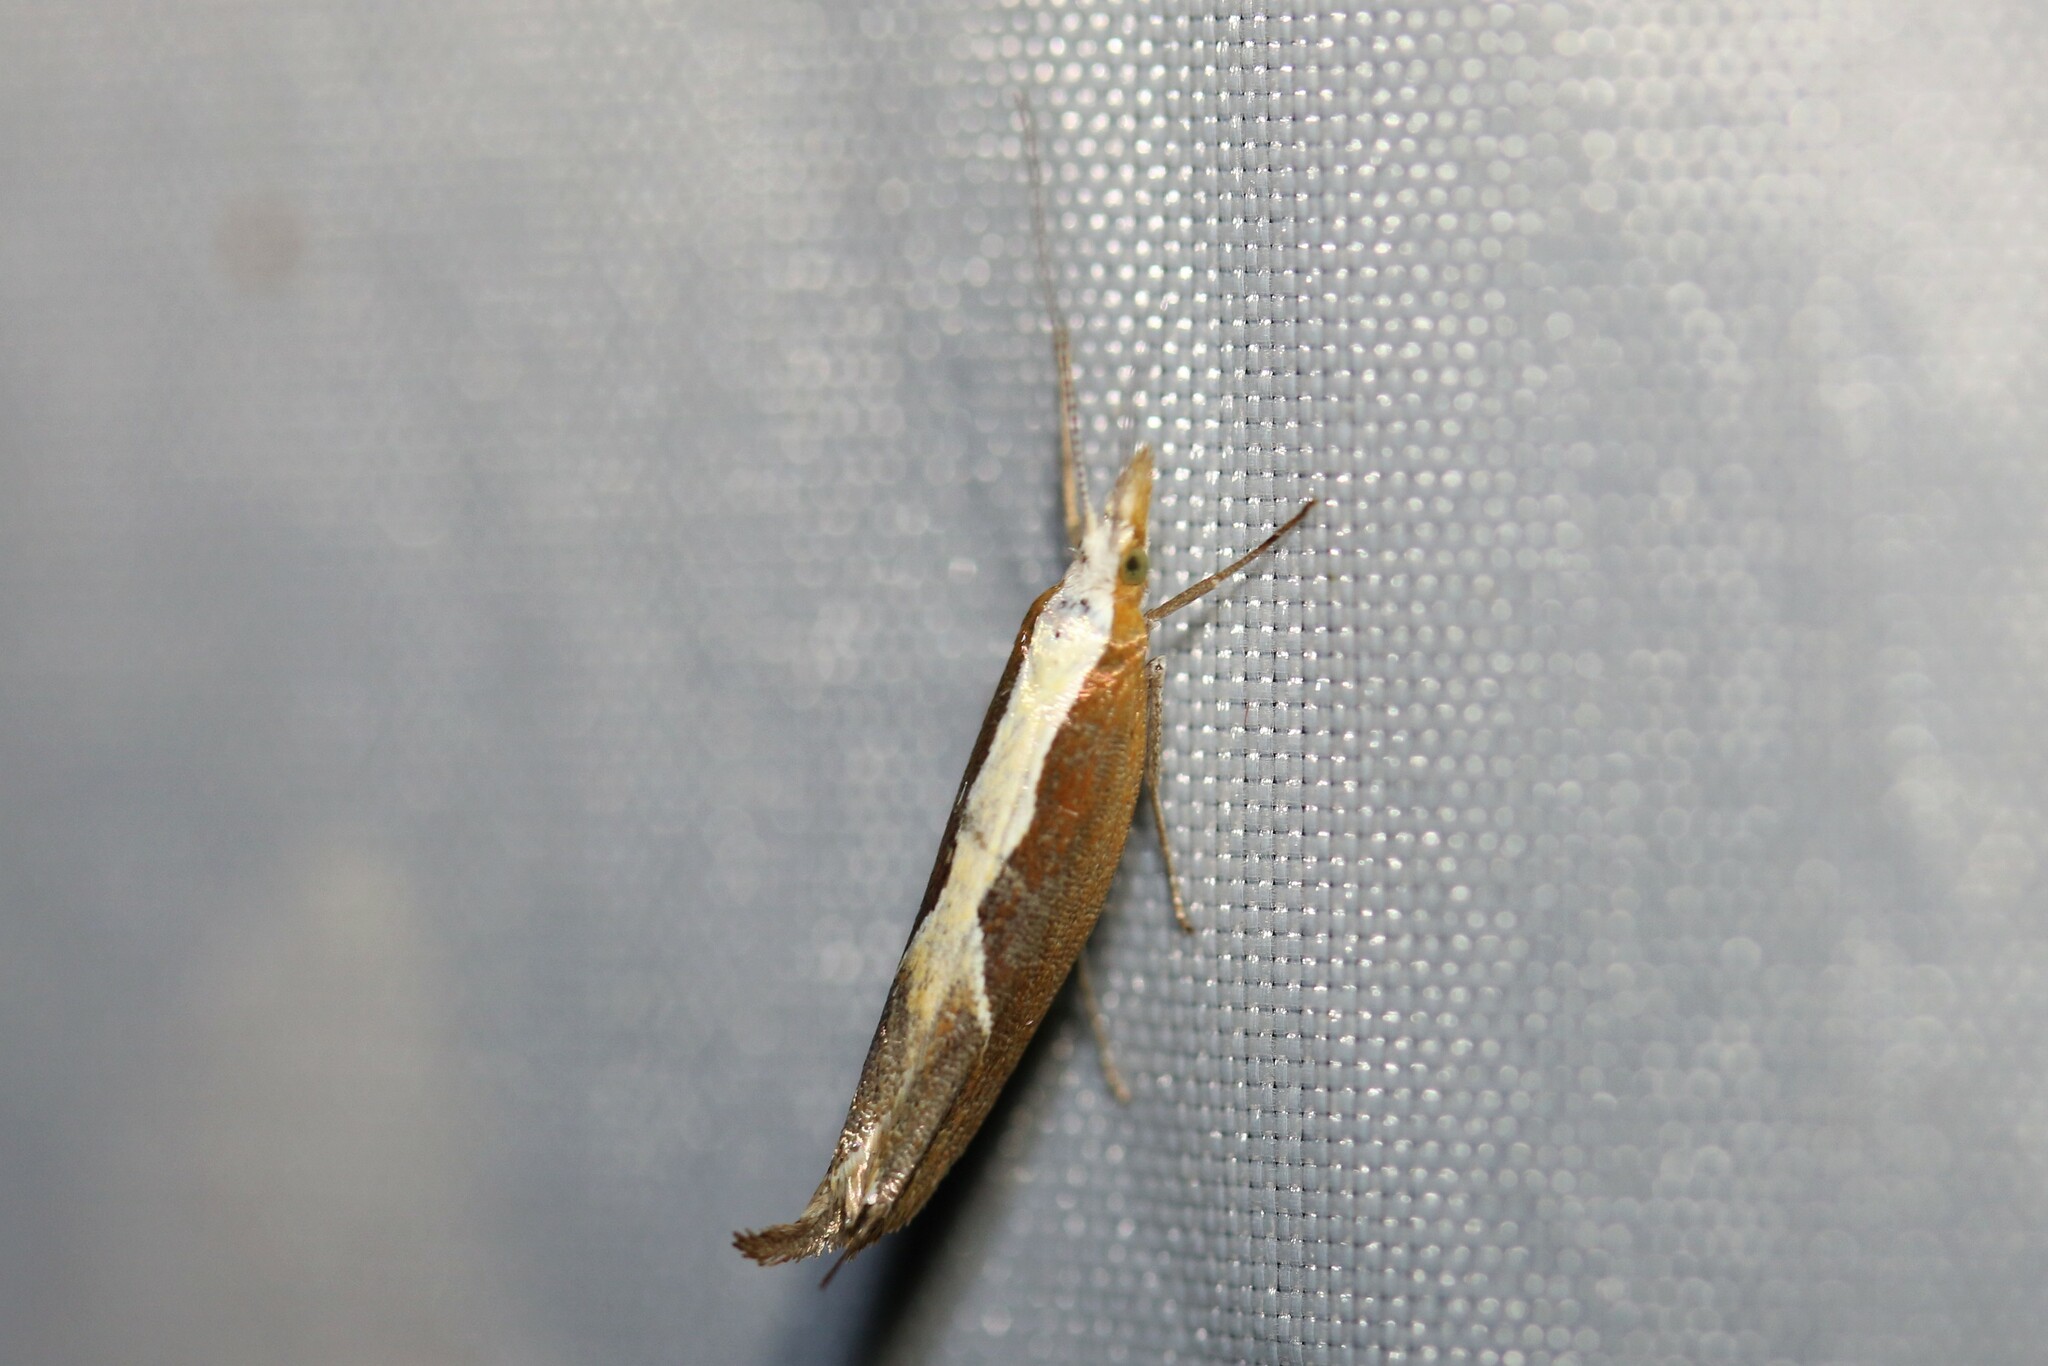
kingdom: Animalia
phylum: Arthropoda
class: Insecta
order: Lepidoptera
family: Ypsolophidae
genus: Ypsolopha
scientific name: Ypsolopha dentella
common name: Honeysuckle moth
